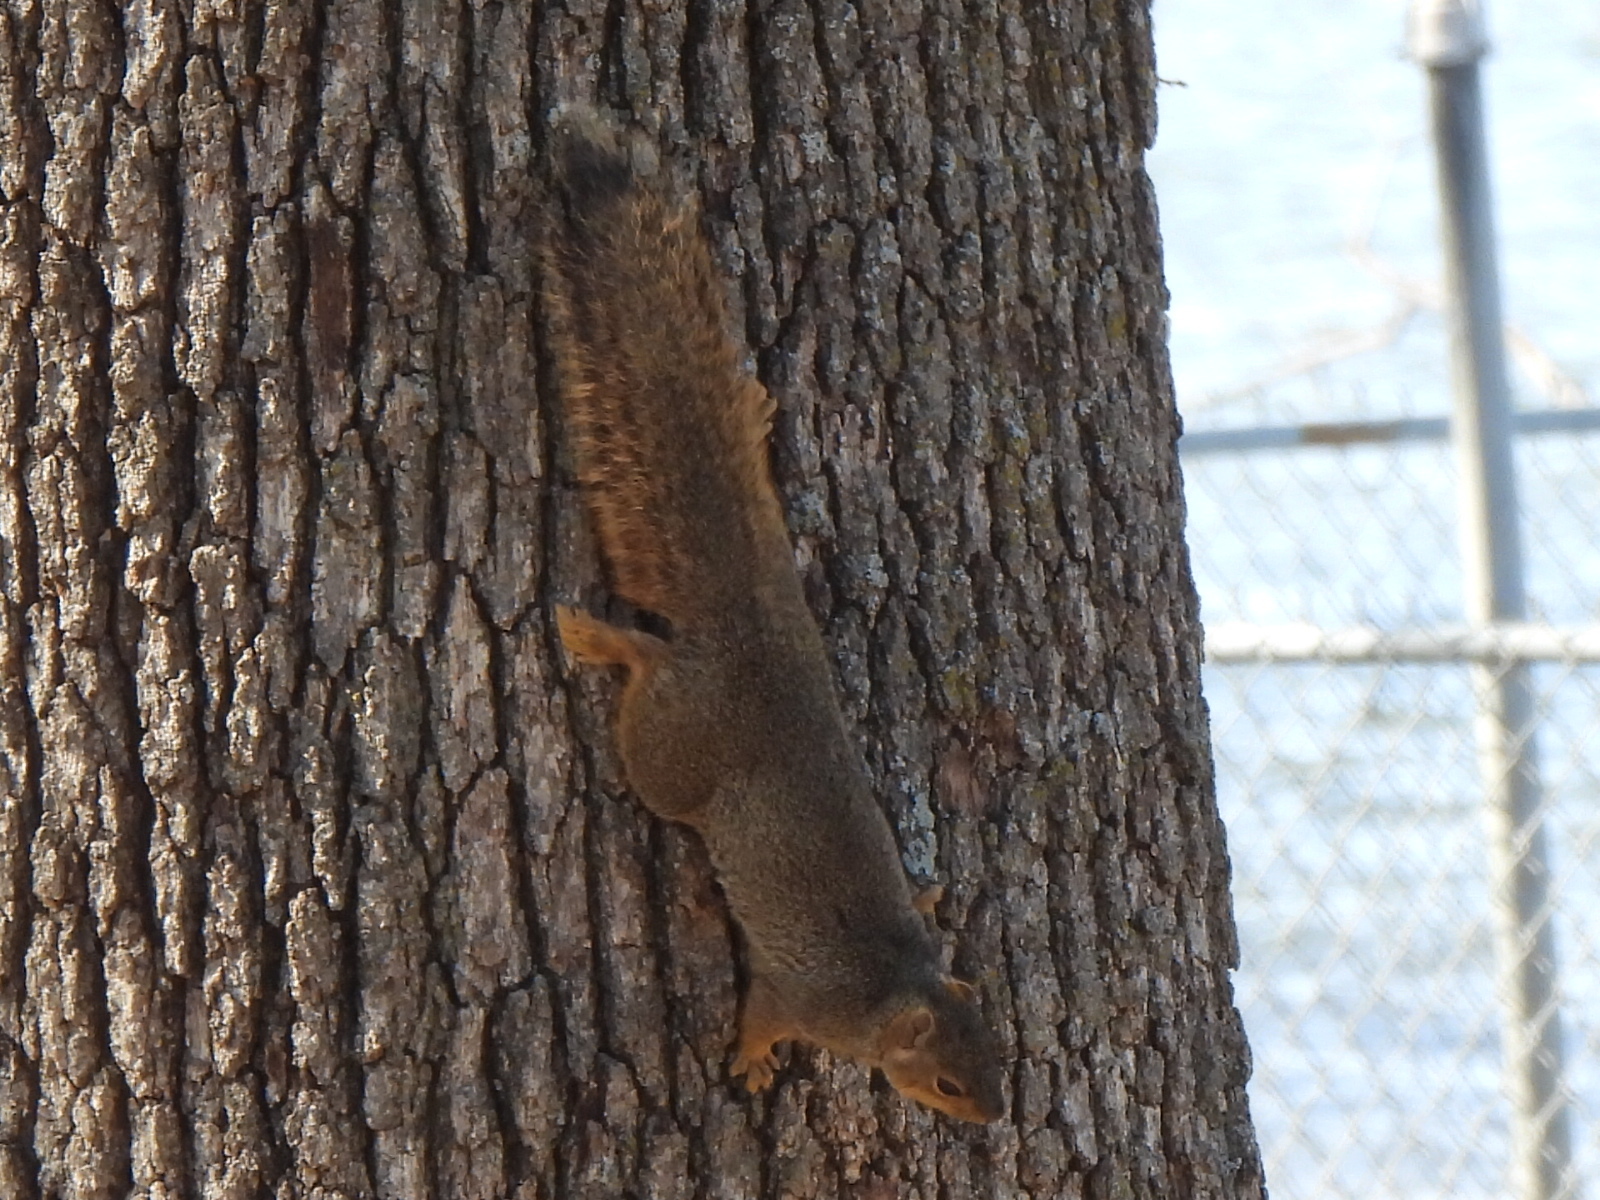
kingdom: Animalia
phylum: Chordata
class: Mammalia
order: Rodentia
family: Sciuridae
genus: Sciurus
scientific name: Sciurus niger
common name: Fox squirrel
